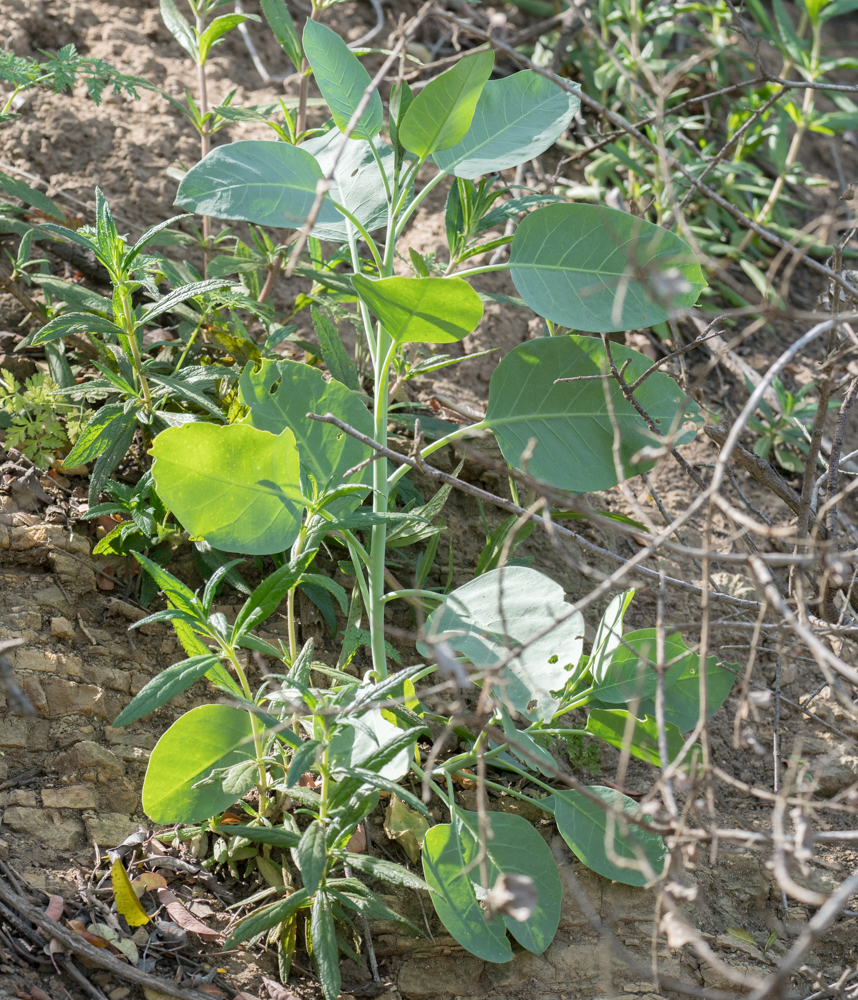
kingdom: Plantae
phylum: Tracheophyta
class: Magnoliopsida
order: Solanales
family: Solanaceae
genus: Nicotiana
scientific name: Nicotiana glauca
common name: Tree tobacco
